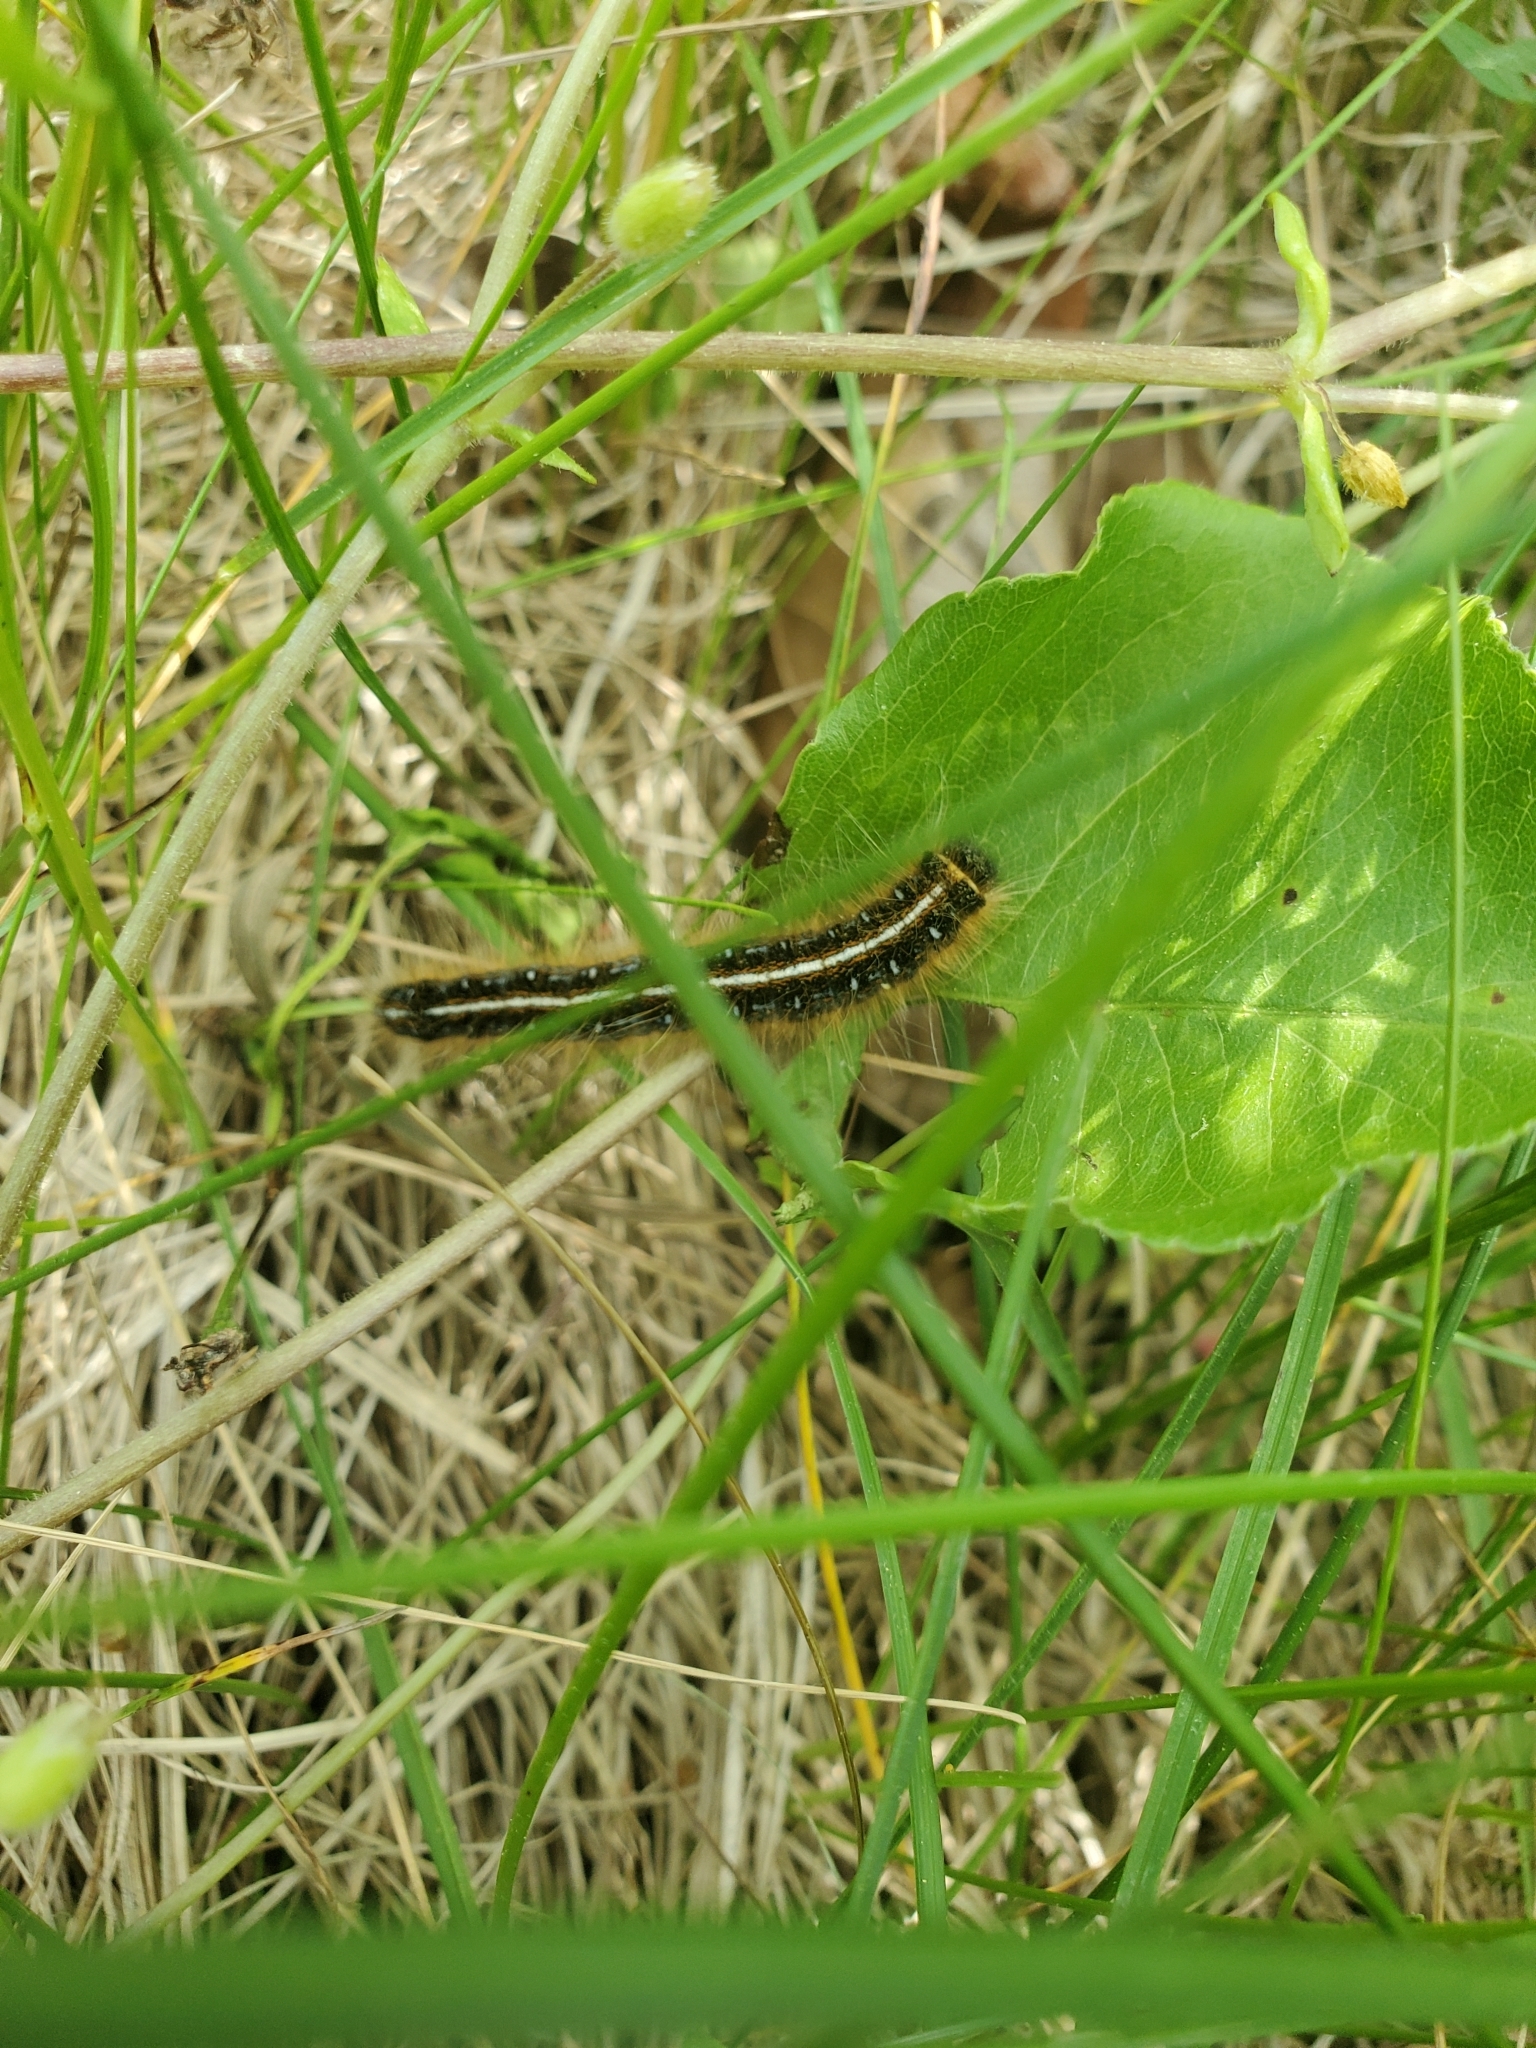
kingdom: Animalia
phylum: Arthropoda
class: Insecta
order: Lepidoptera
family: Lasiocampidae
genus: Malacosoma
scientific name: Malacosoma americana
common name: Eastern tent caterpillar moth
